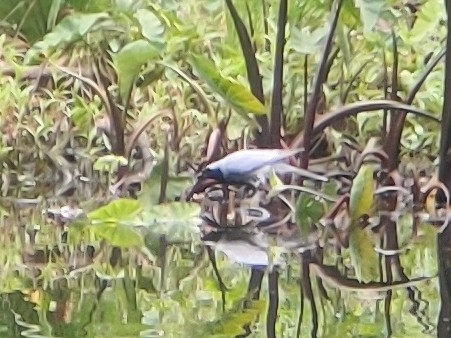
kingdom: Animalia
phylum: Chordata
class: Aves
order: Passeriformes
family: Campephagidae
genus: Coracina
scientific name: Coracina novaehollandiae
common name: Black-faced cuckooshrike
